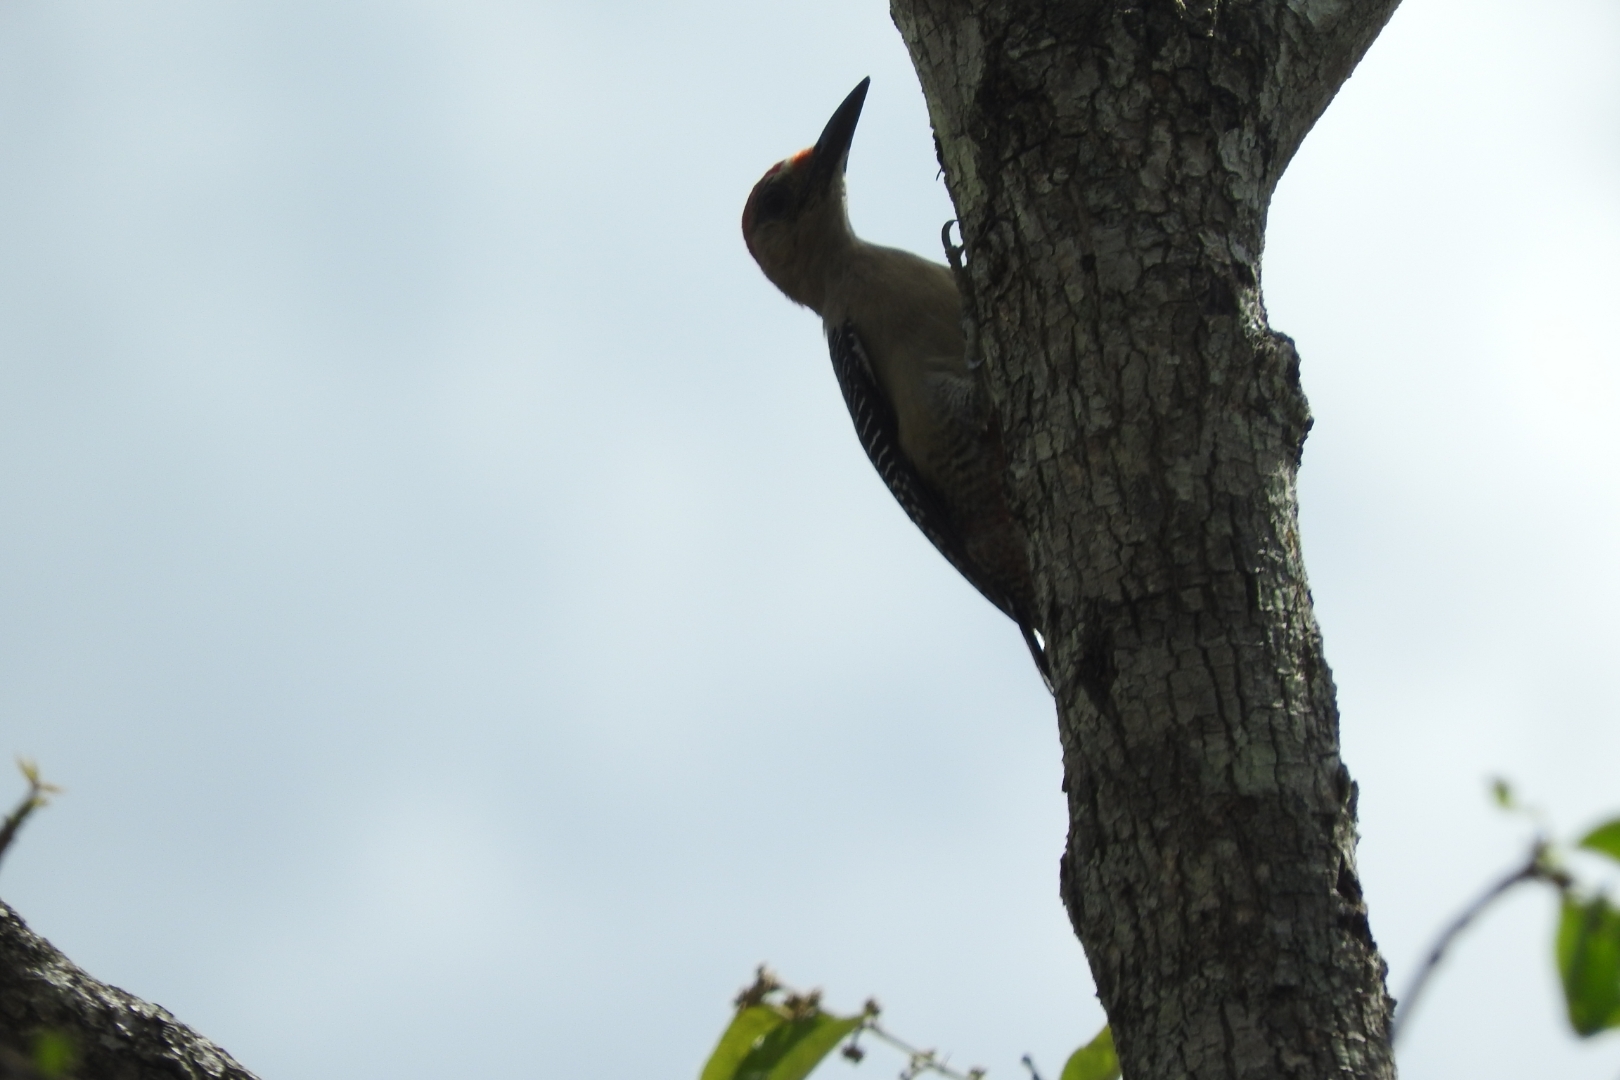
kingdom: Animalia
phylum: Chordata
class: Aves
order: Piciformes
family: Picidae
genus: Melanerpes
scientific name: Melanerpes aurifrons
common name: Golden-fronted woodpecker
